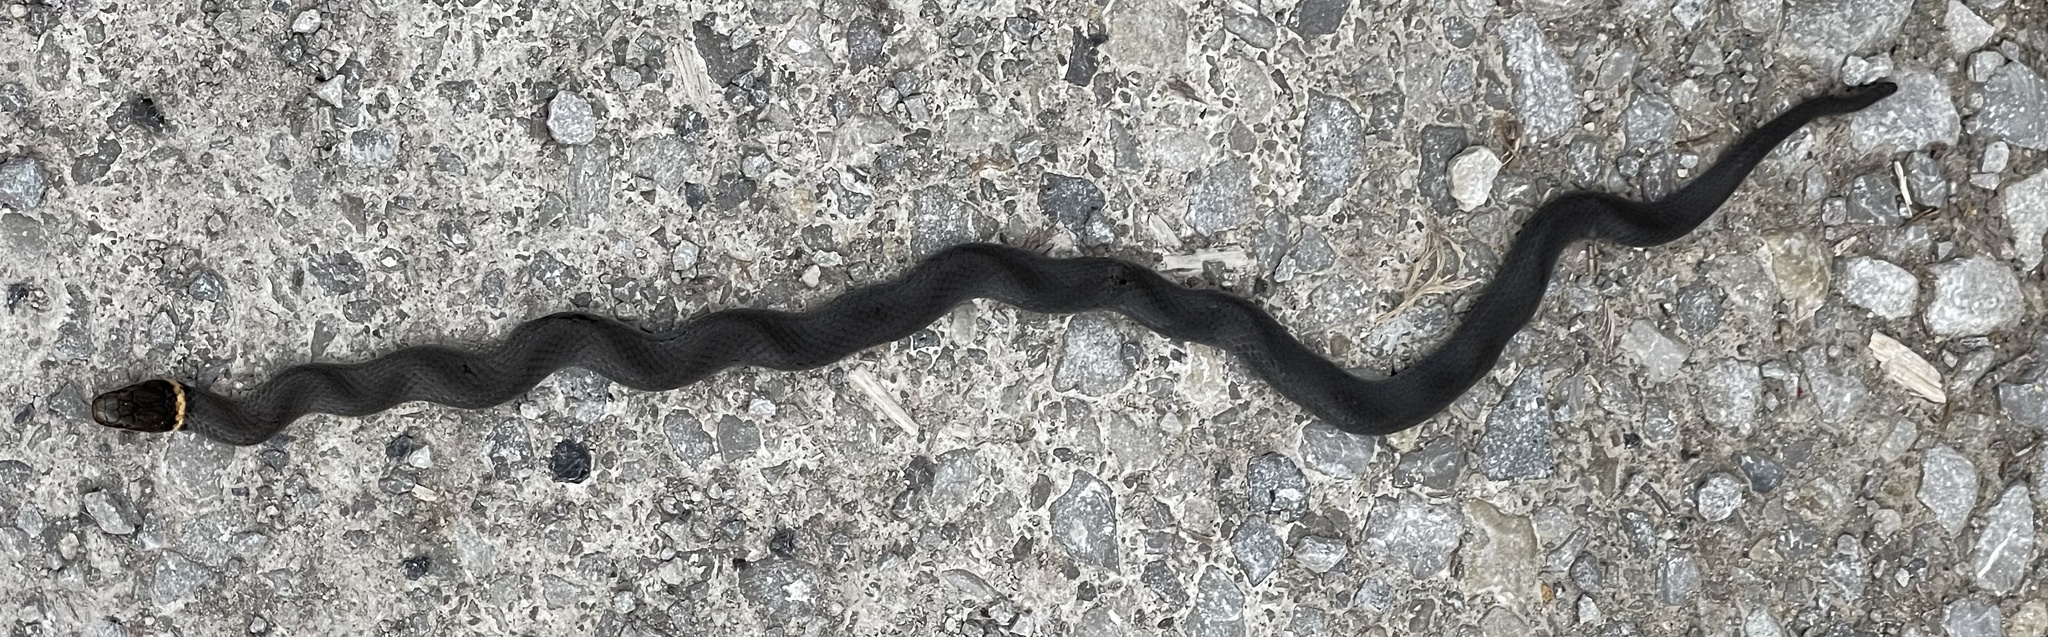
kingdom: Animalia
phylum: Chordata
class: Squamata
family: Colubridae
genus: Diadophis
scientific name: Diadophis punctatus
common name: Ringneck snake
